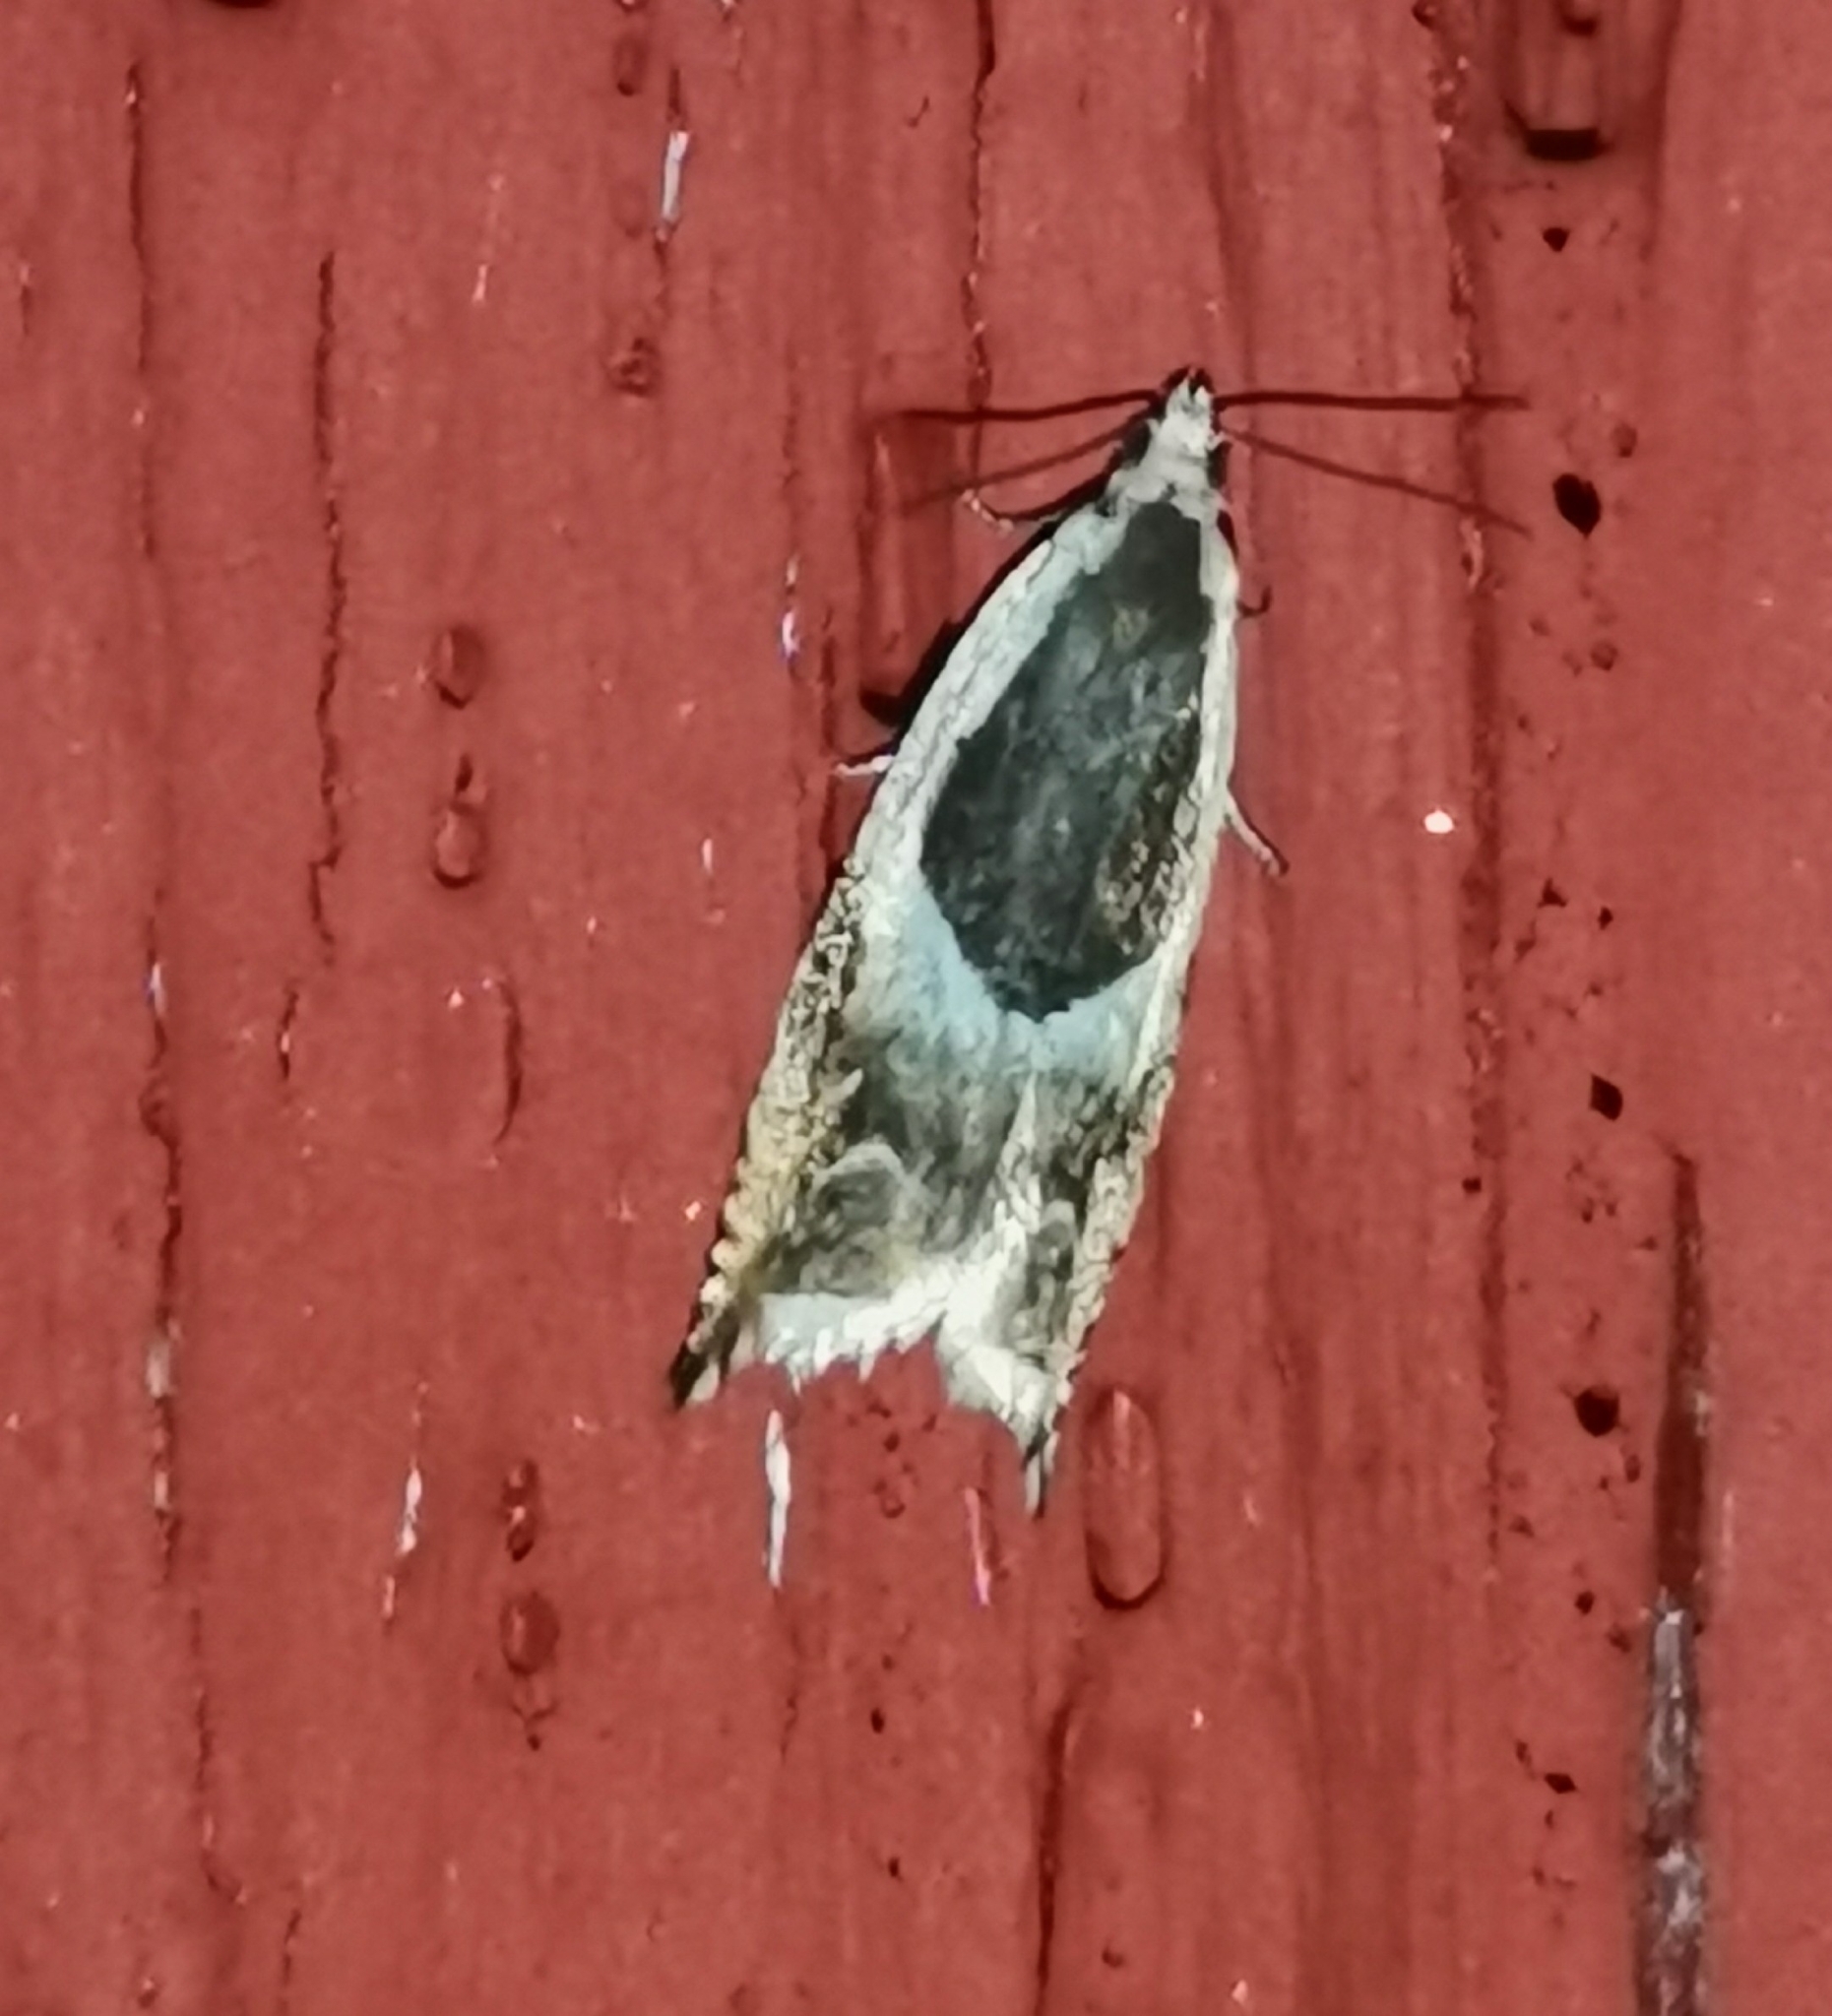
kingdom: Animalia
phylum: Arthropoda
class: Insecta
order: Lepidoptera
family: Tortricidae
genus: Ancylis
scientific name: Ancylis badiana
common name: Common roller
